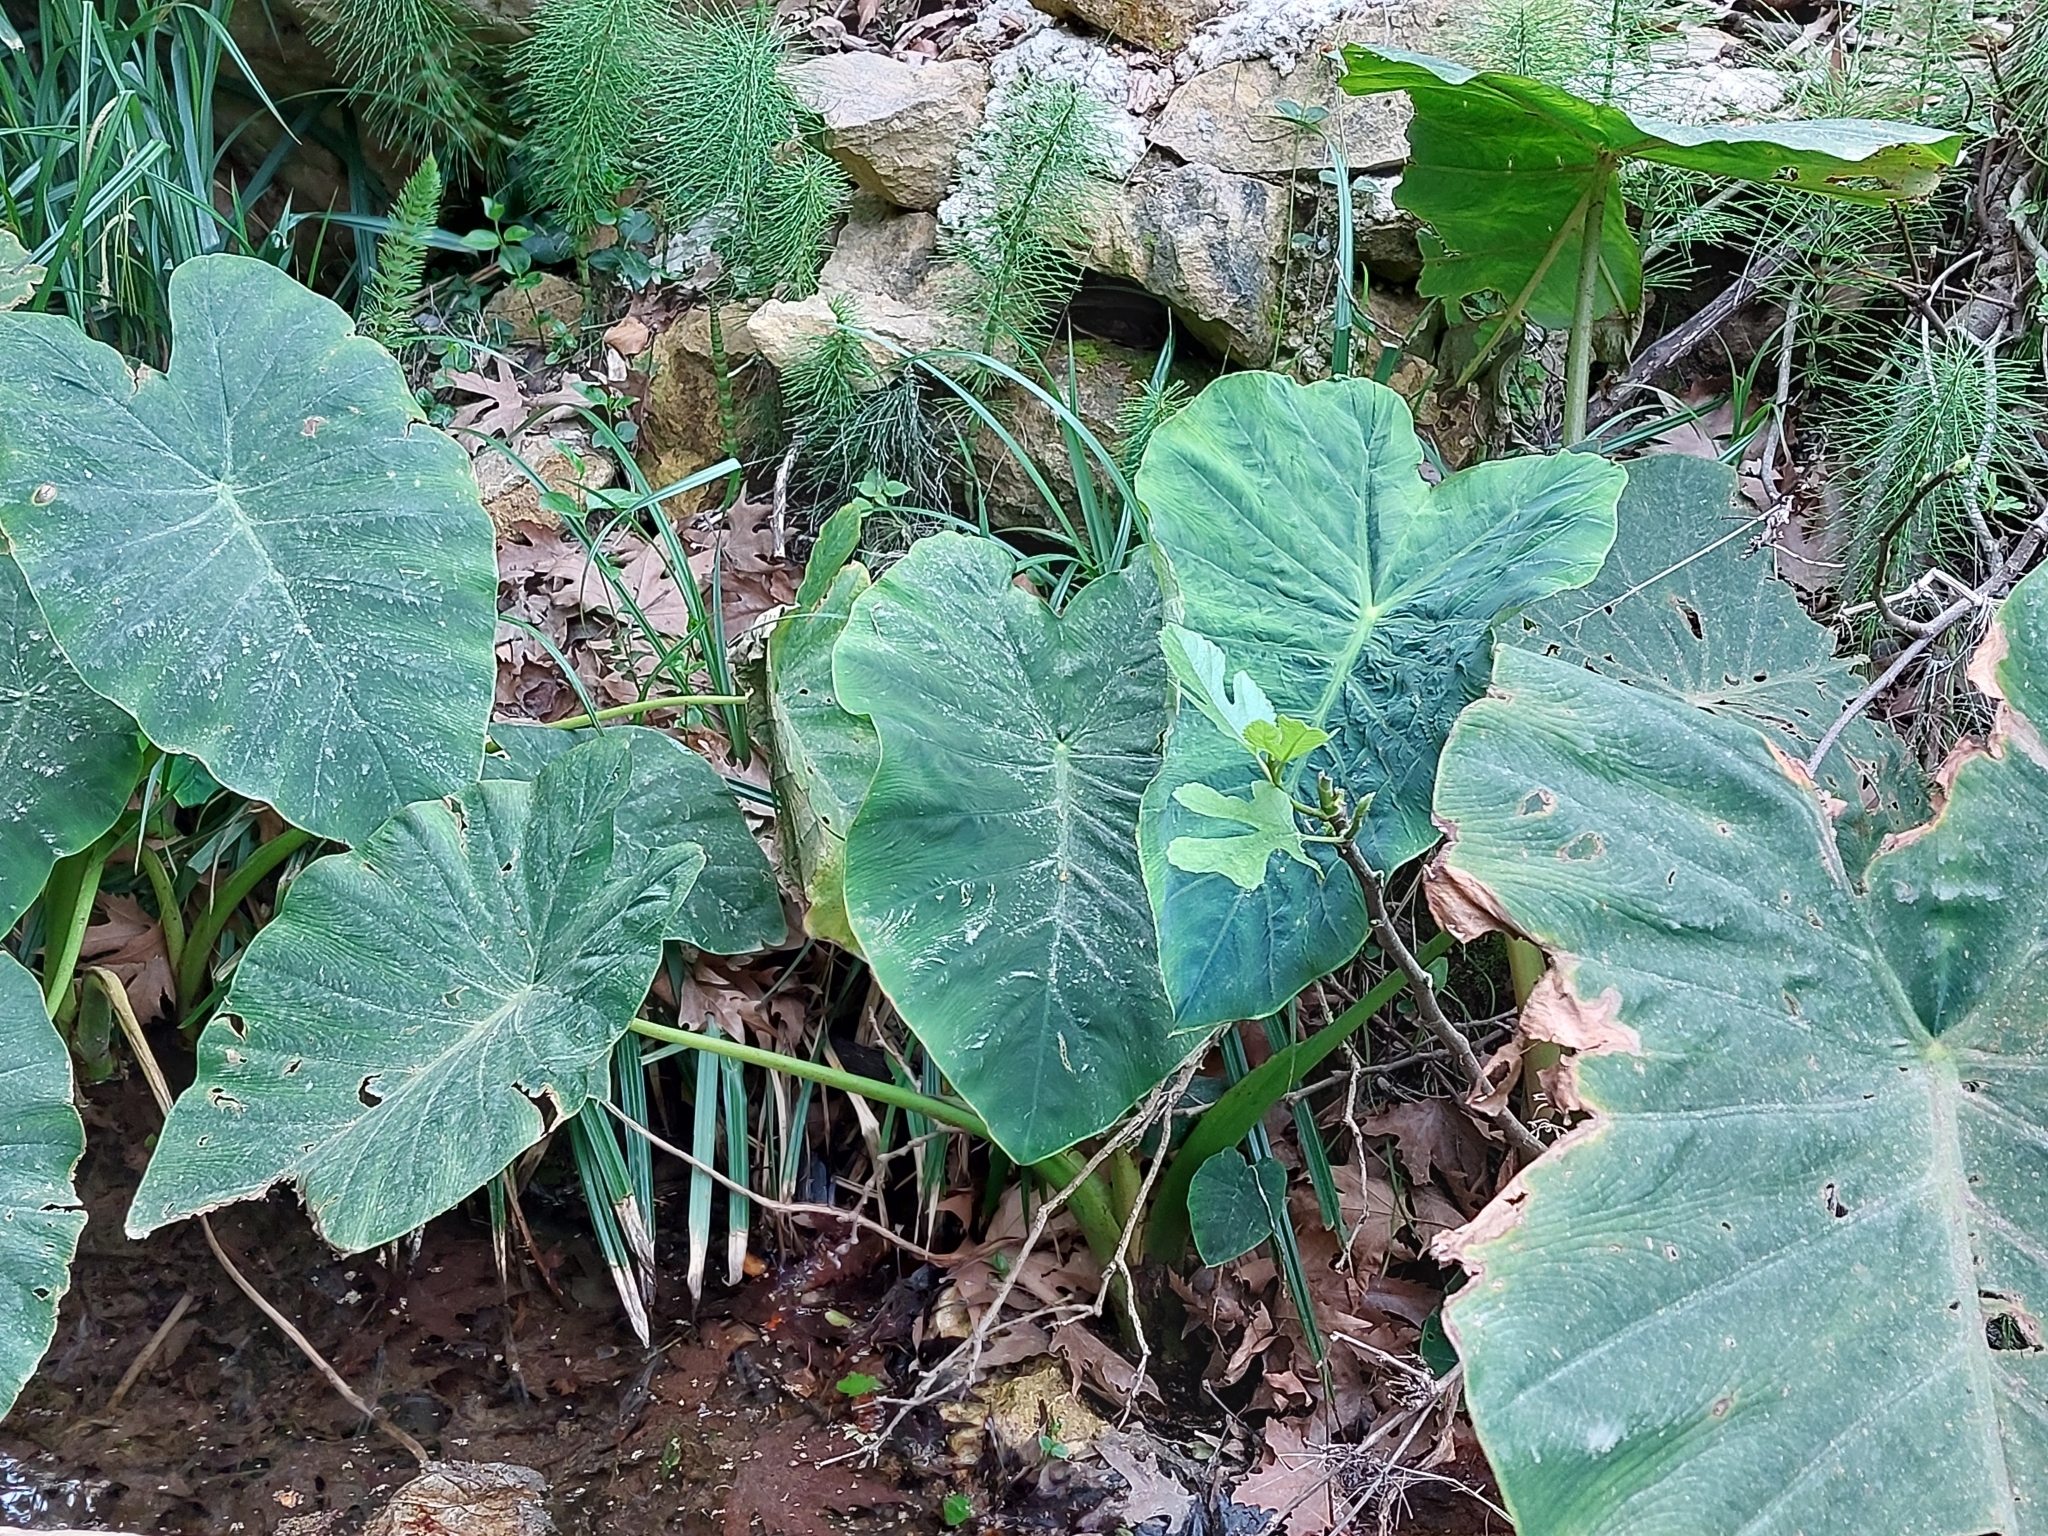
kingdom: Plantae
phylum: Tracheophyta
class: Liliopsida
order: Alismatales
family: Araceae
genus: Colocasia
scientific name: Colocasia esculenta
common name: Taro
